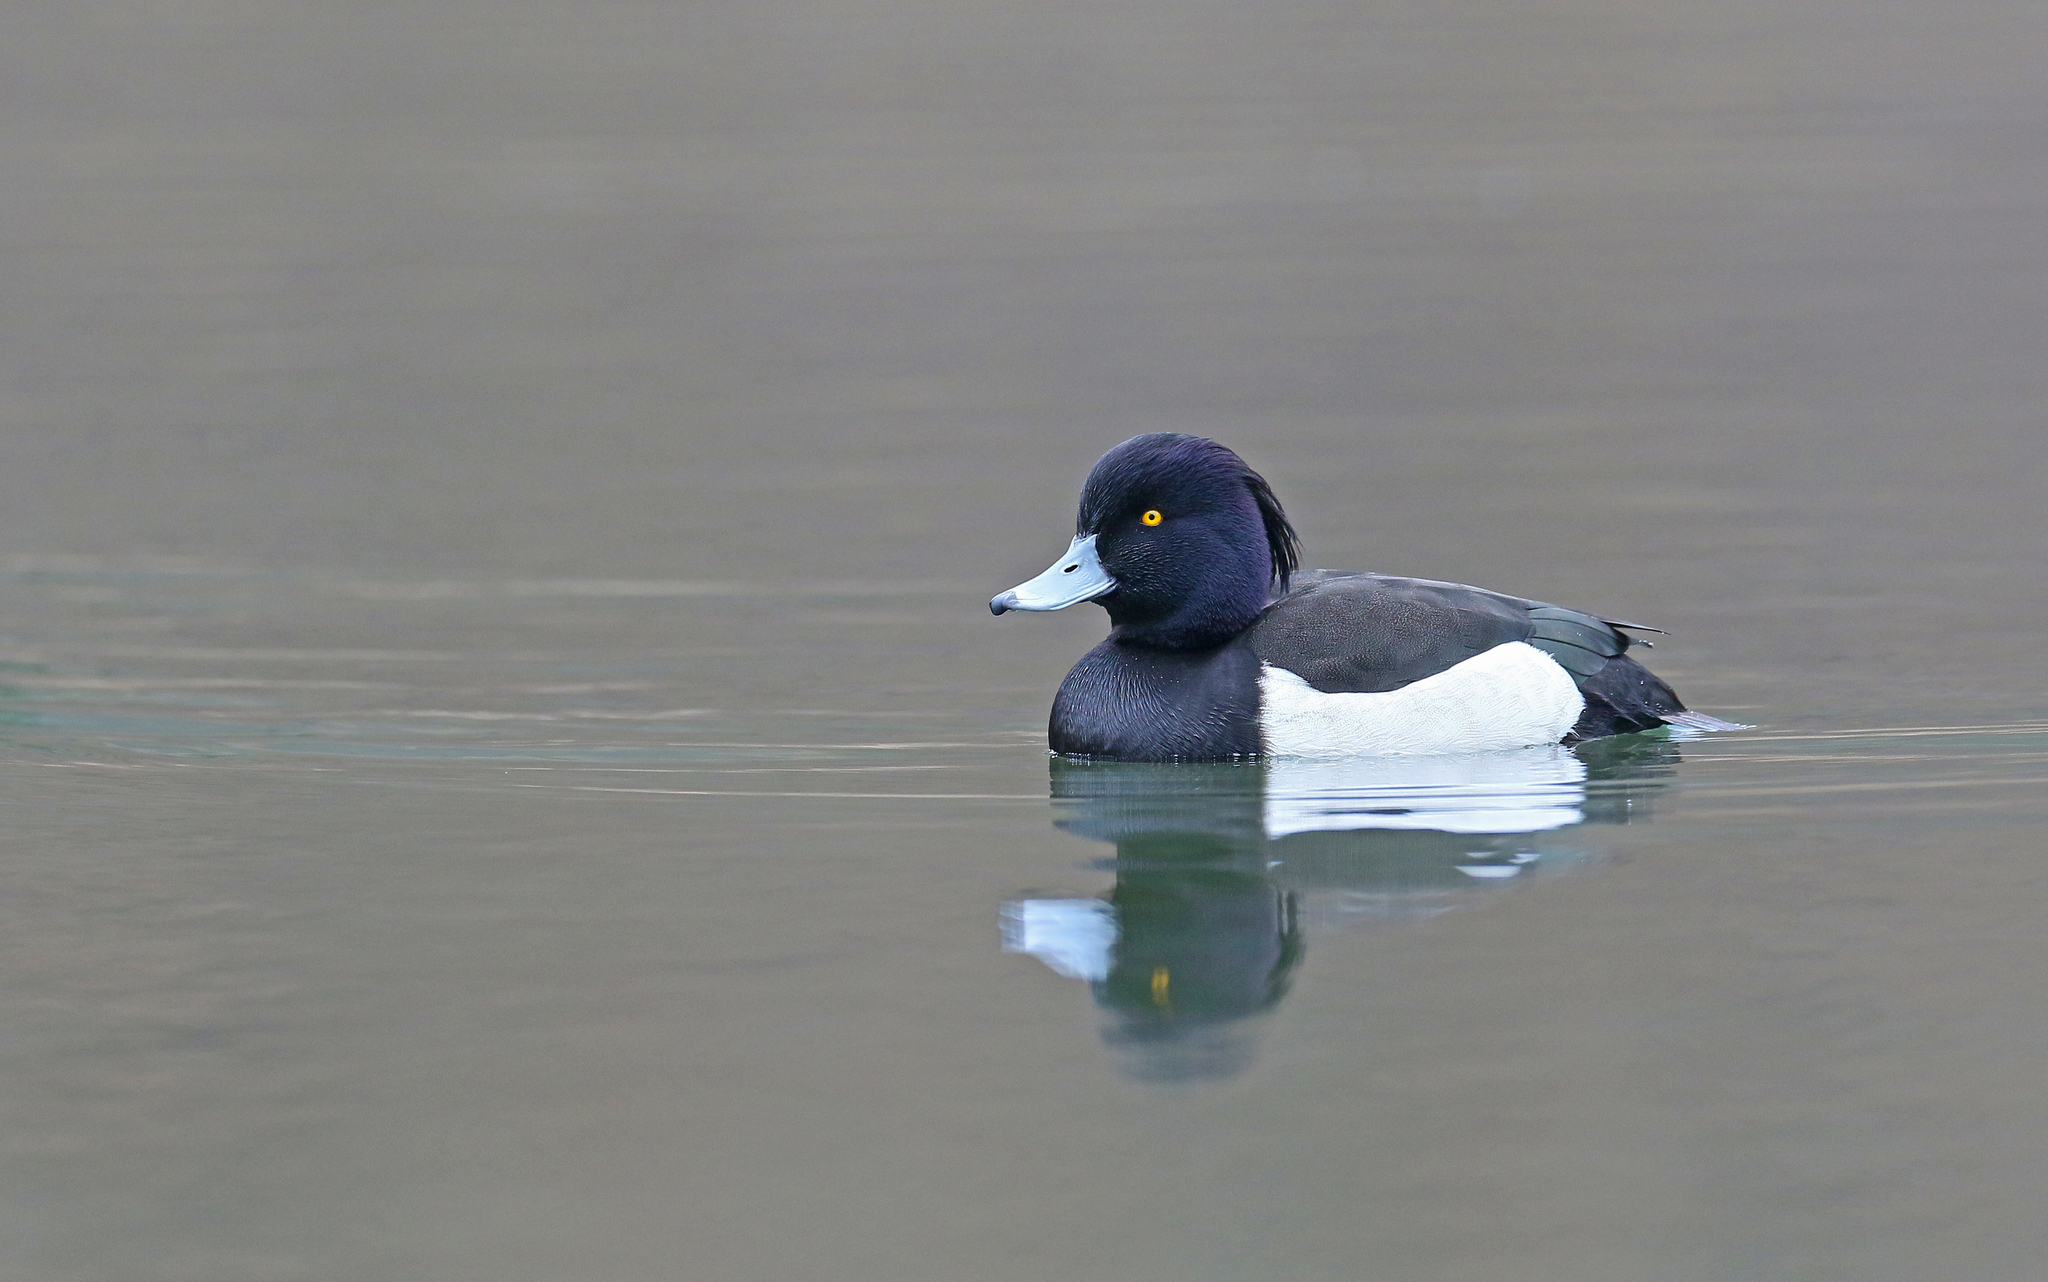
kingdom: Animalia
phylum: Chordata
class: Aves
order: Anseriformes
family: Anatidae
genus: Aythya
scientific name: Aythya fuligula
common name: Tufted duck
